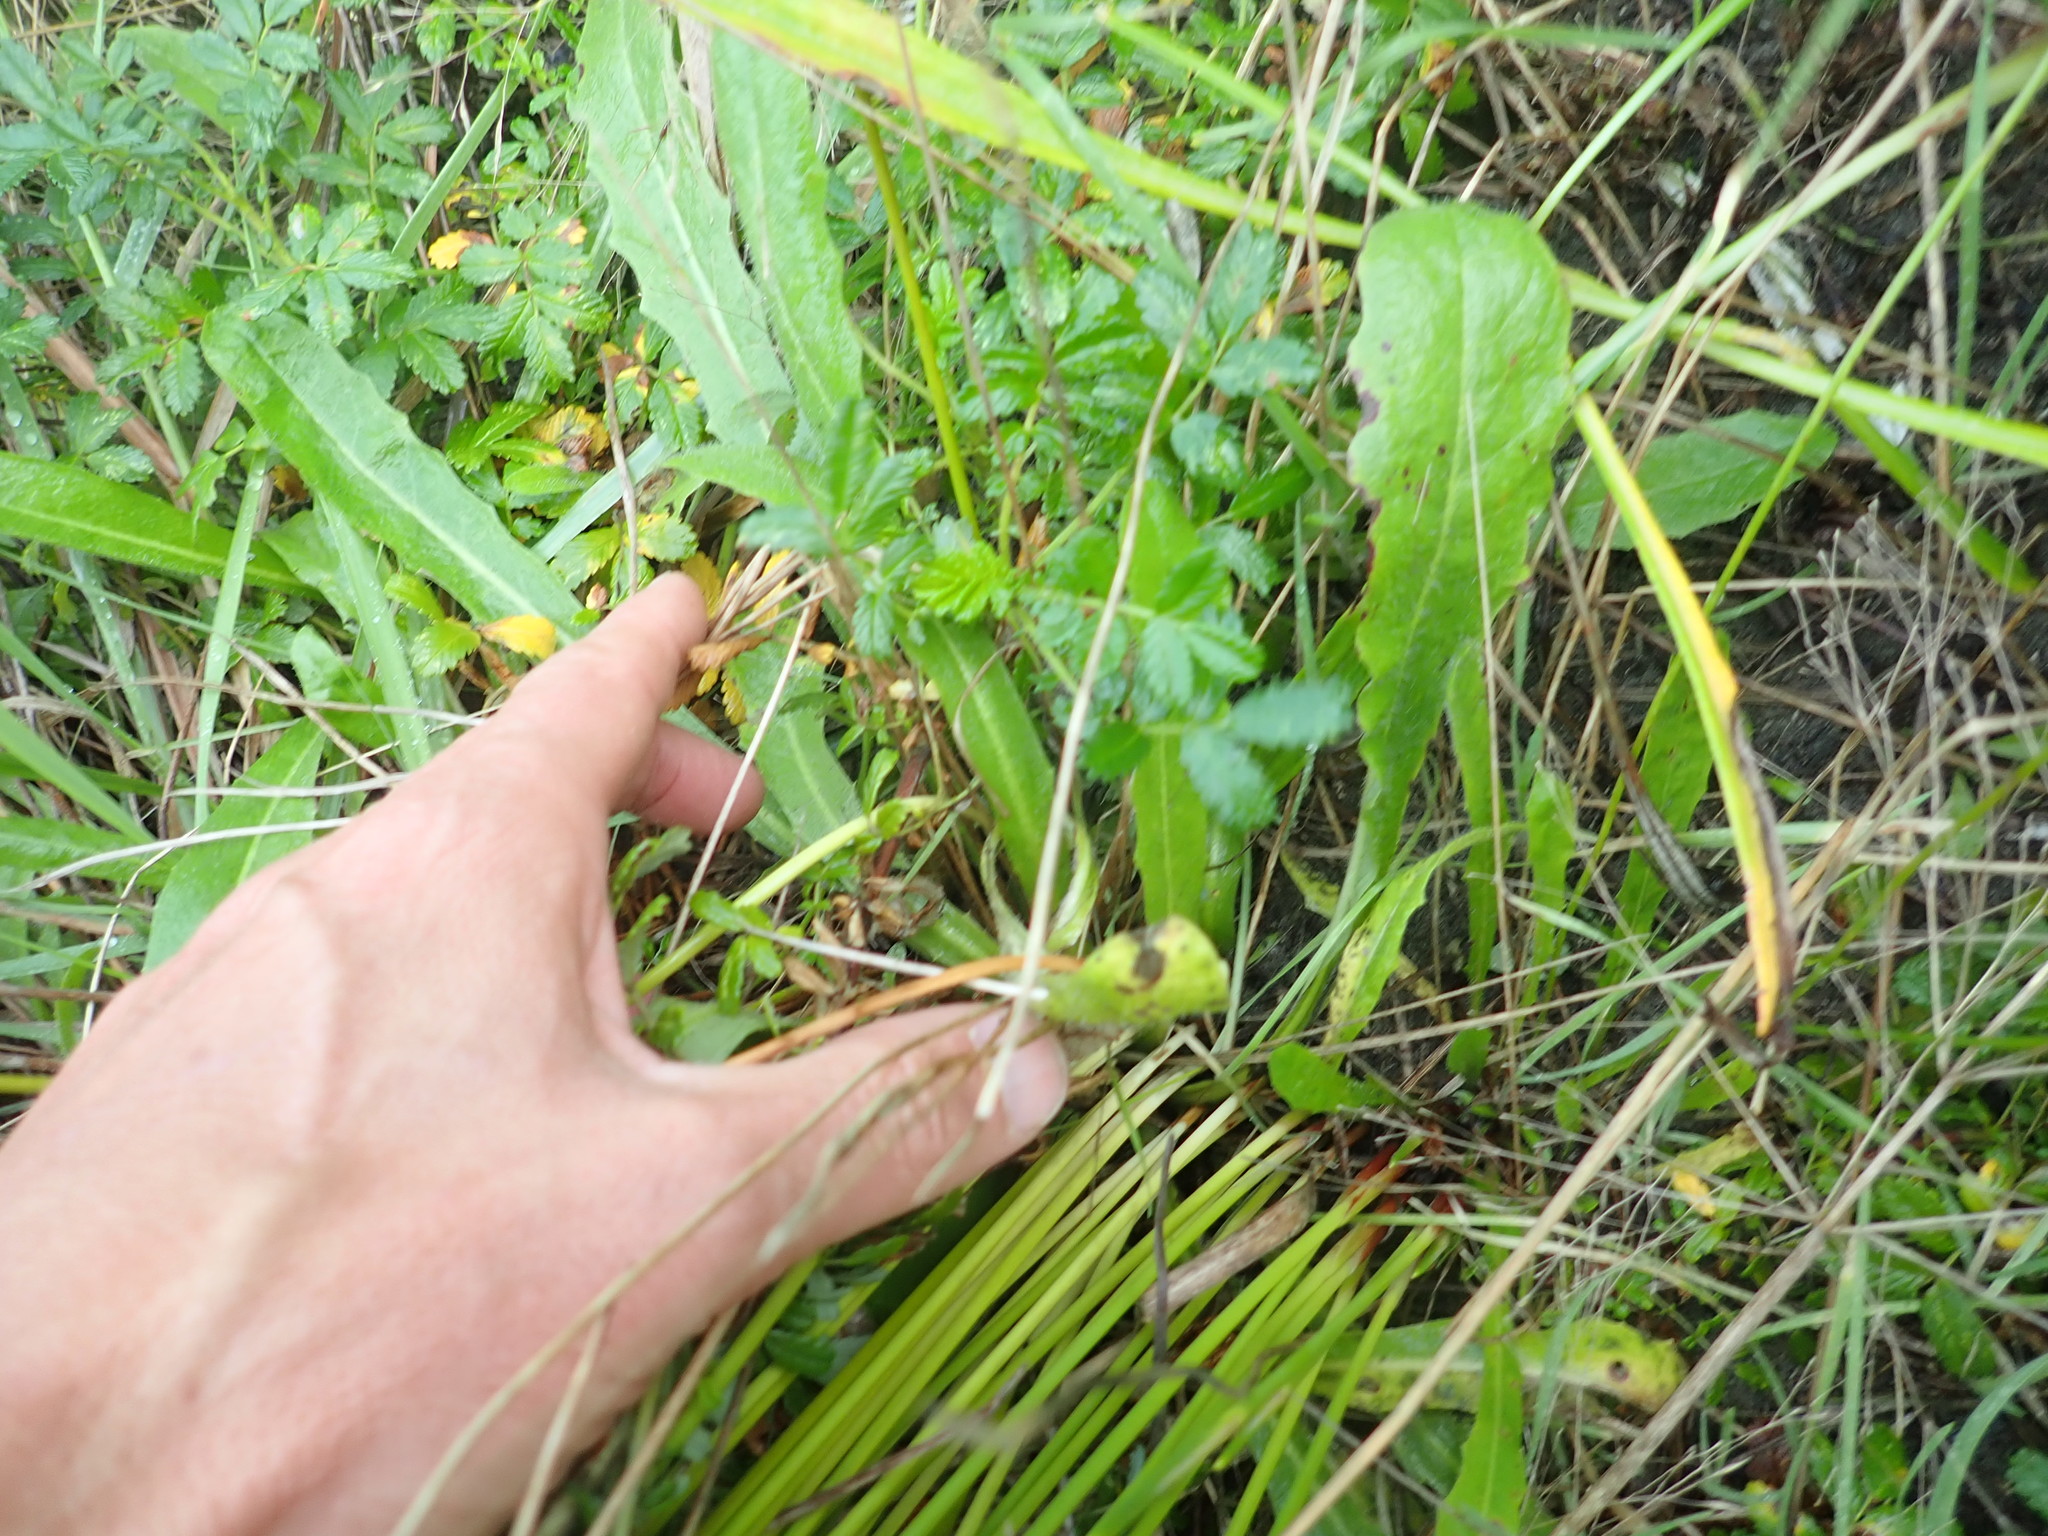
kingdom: Plantae
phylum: Tracheophyta
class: Magnoliopsida
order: Rosales
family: Rosaceae
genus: Acaena
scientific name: Acaena novae-zelandiae
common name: Pirri-pirri-bur
